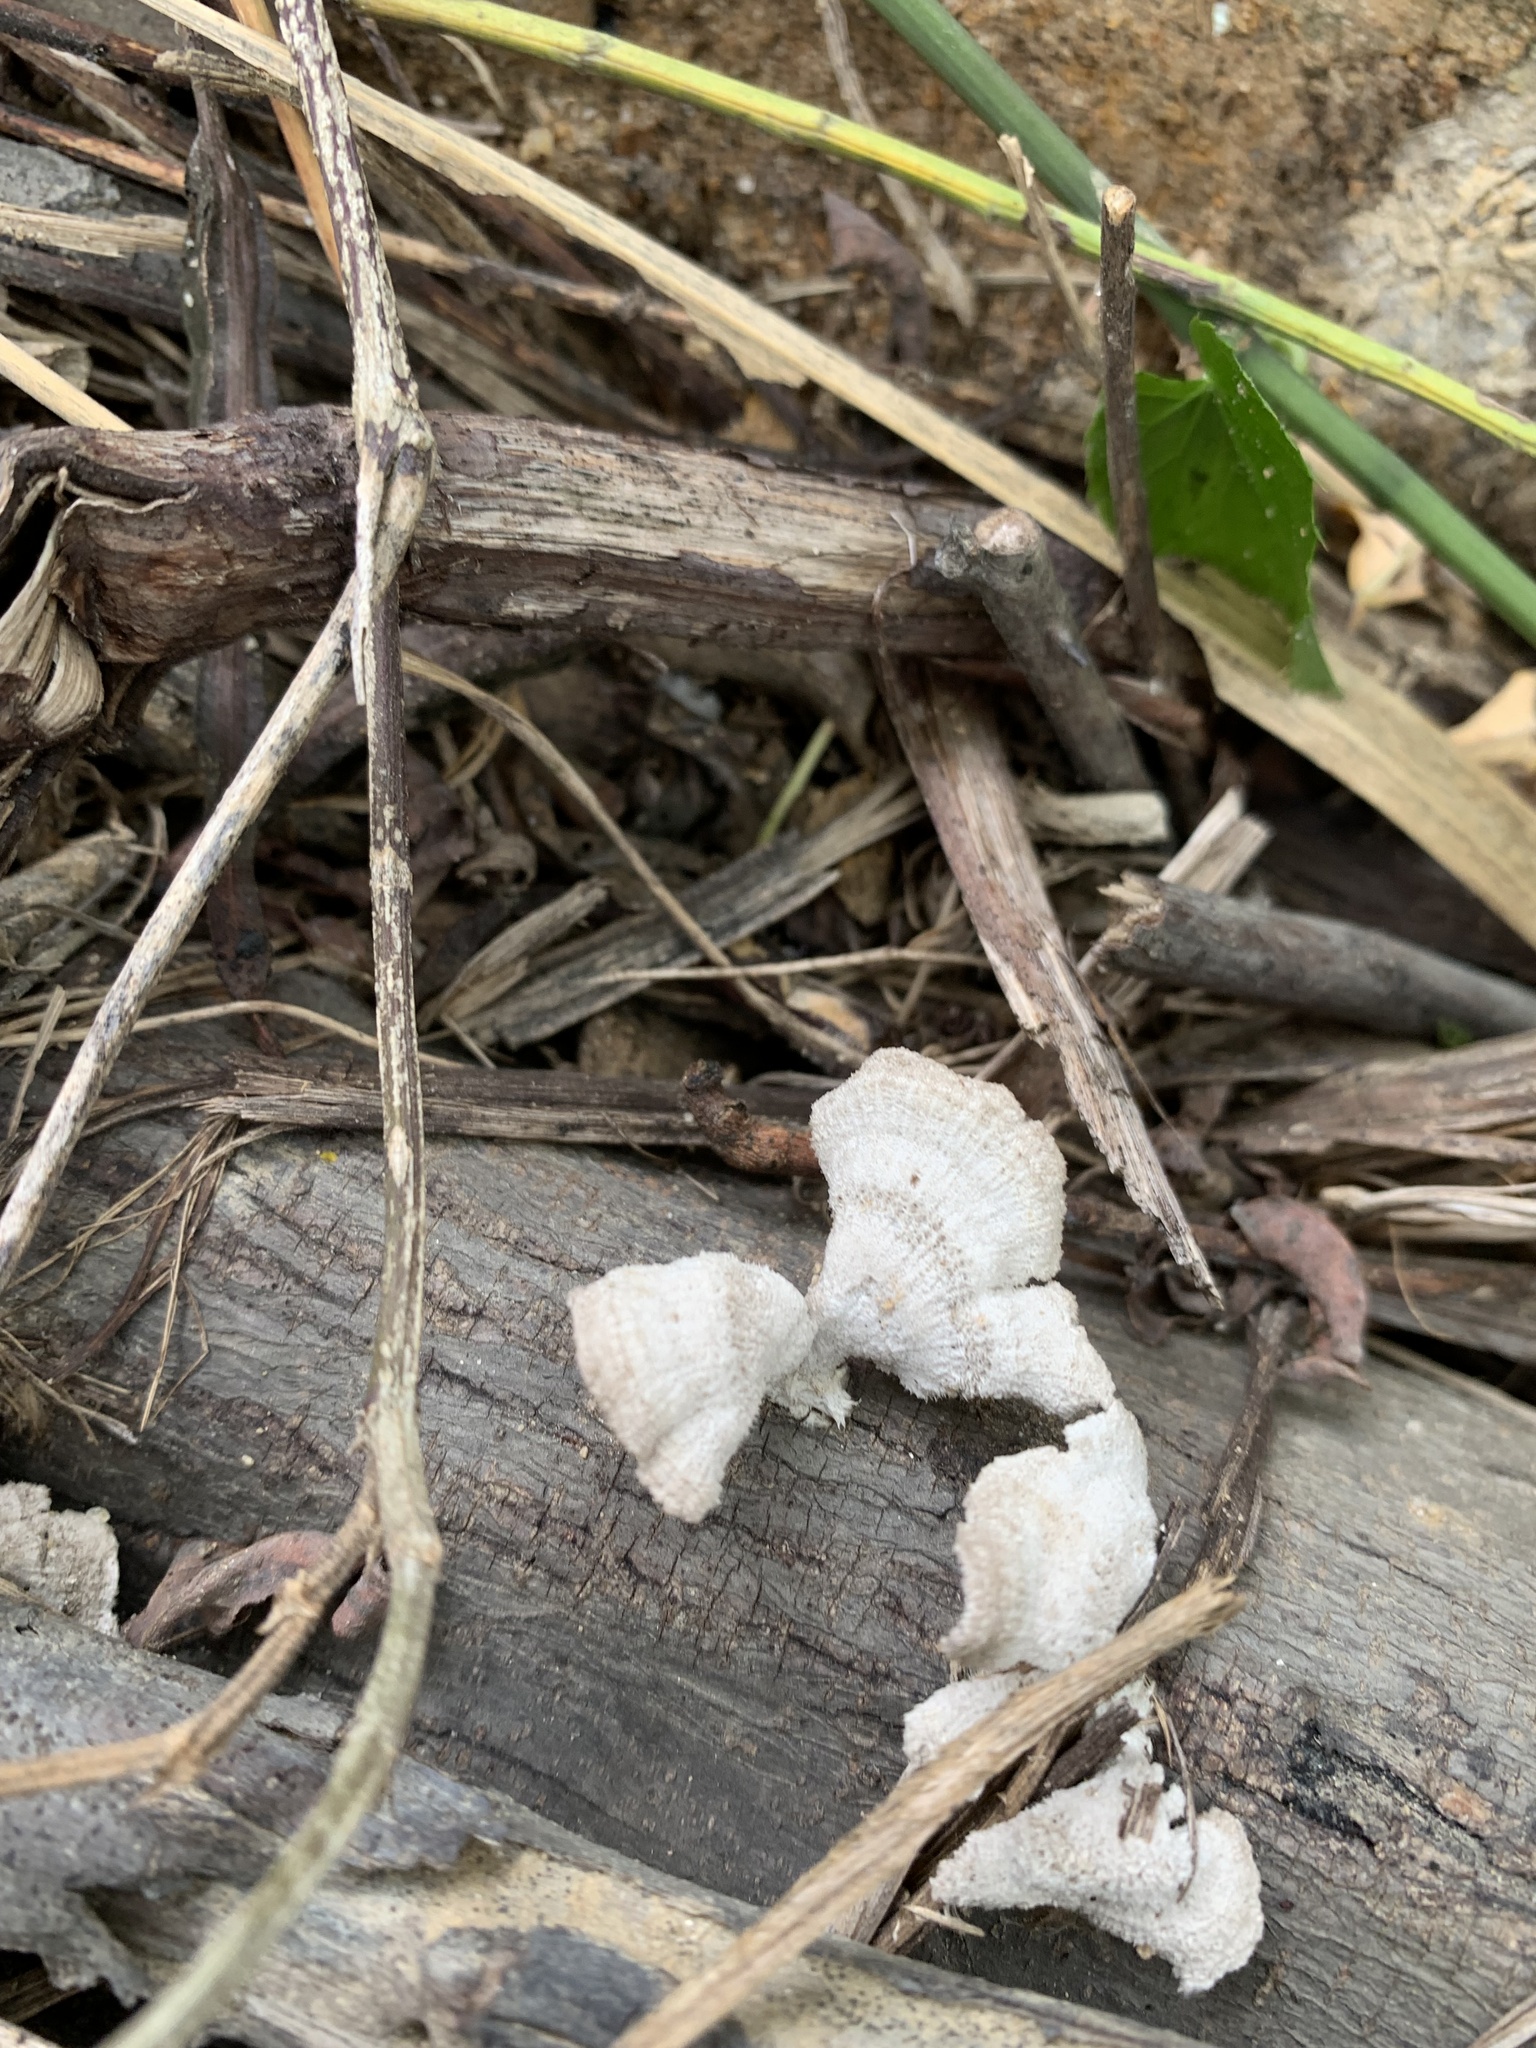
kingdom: Fungi
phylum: Basidiomycota
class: Agaricomycetes
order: Agaricales
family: Schizophyllaceae
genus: Schizophyllum
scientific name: Schizophyllum commune
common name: Common porecrust
